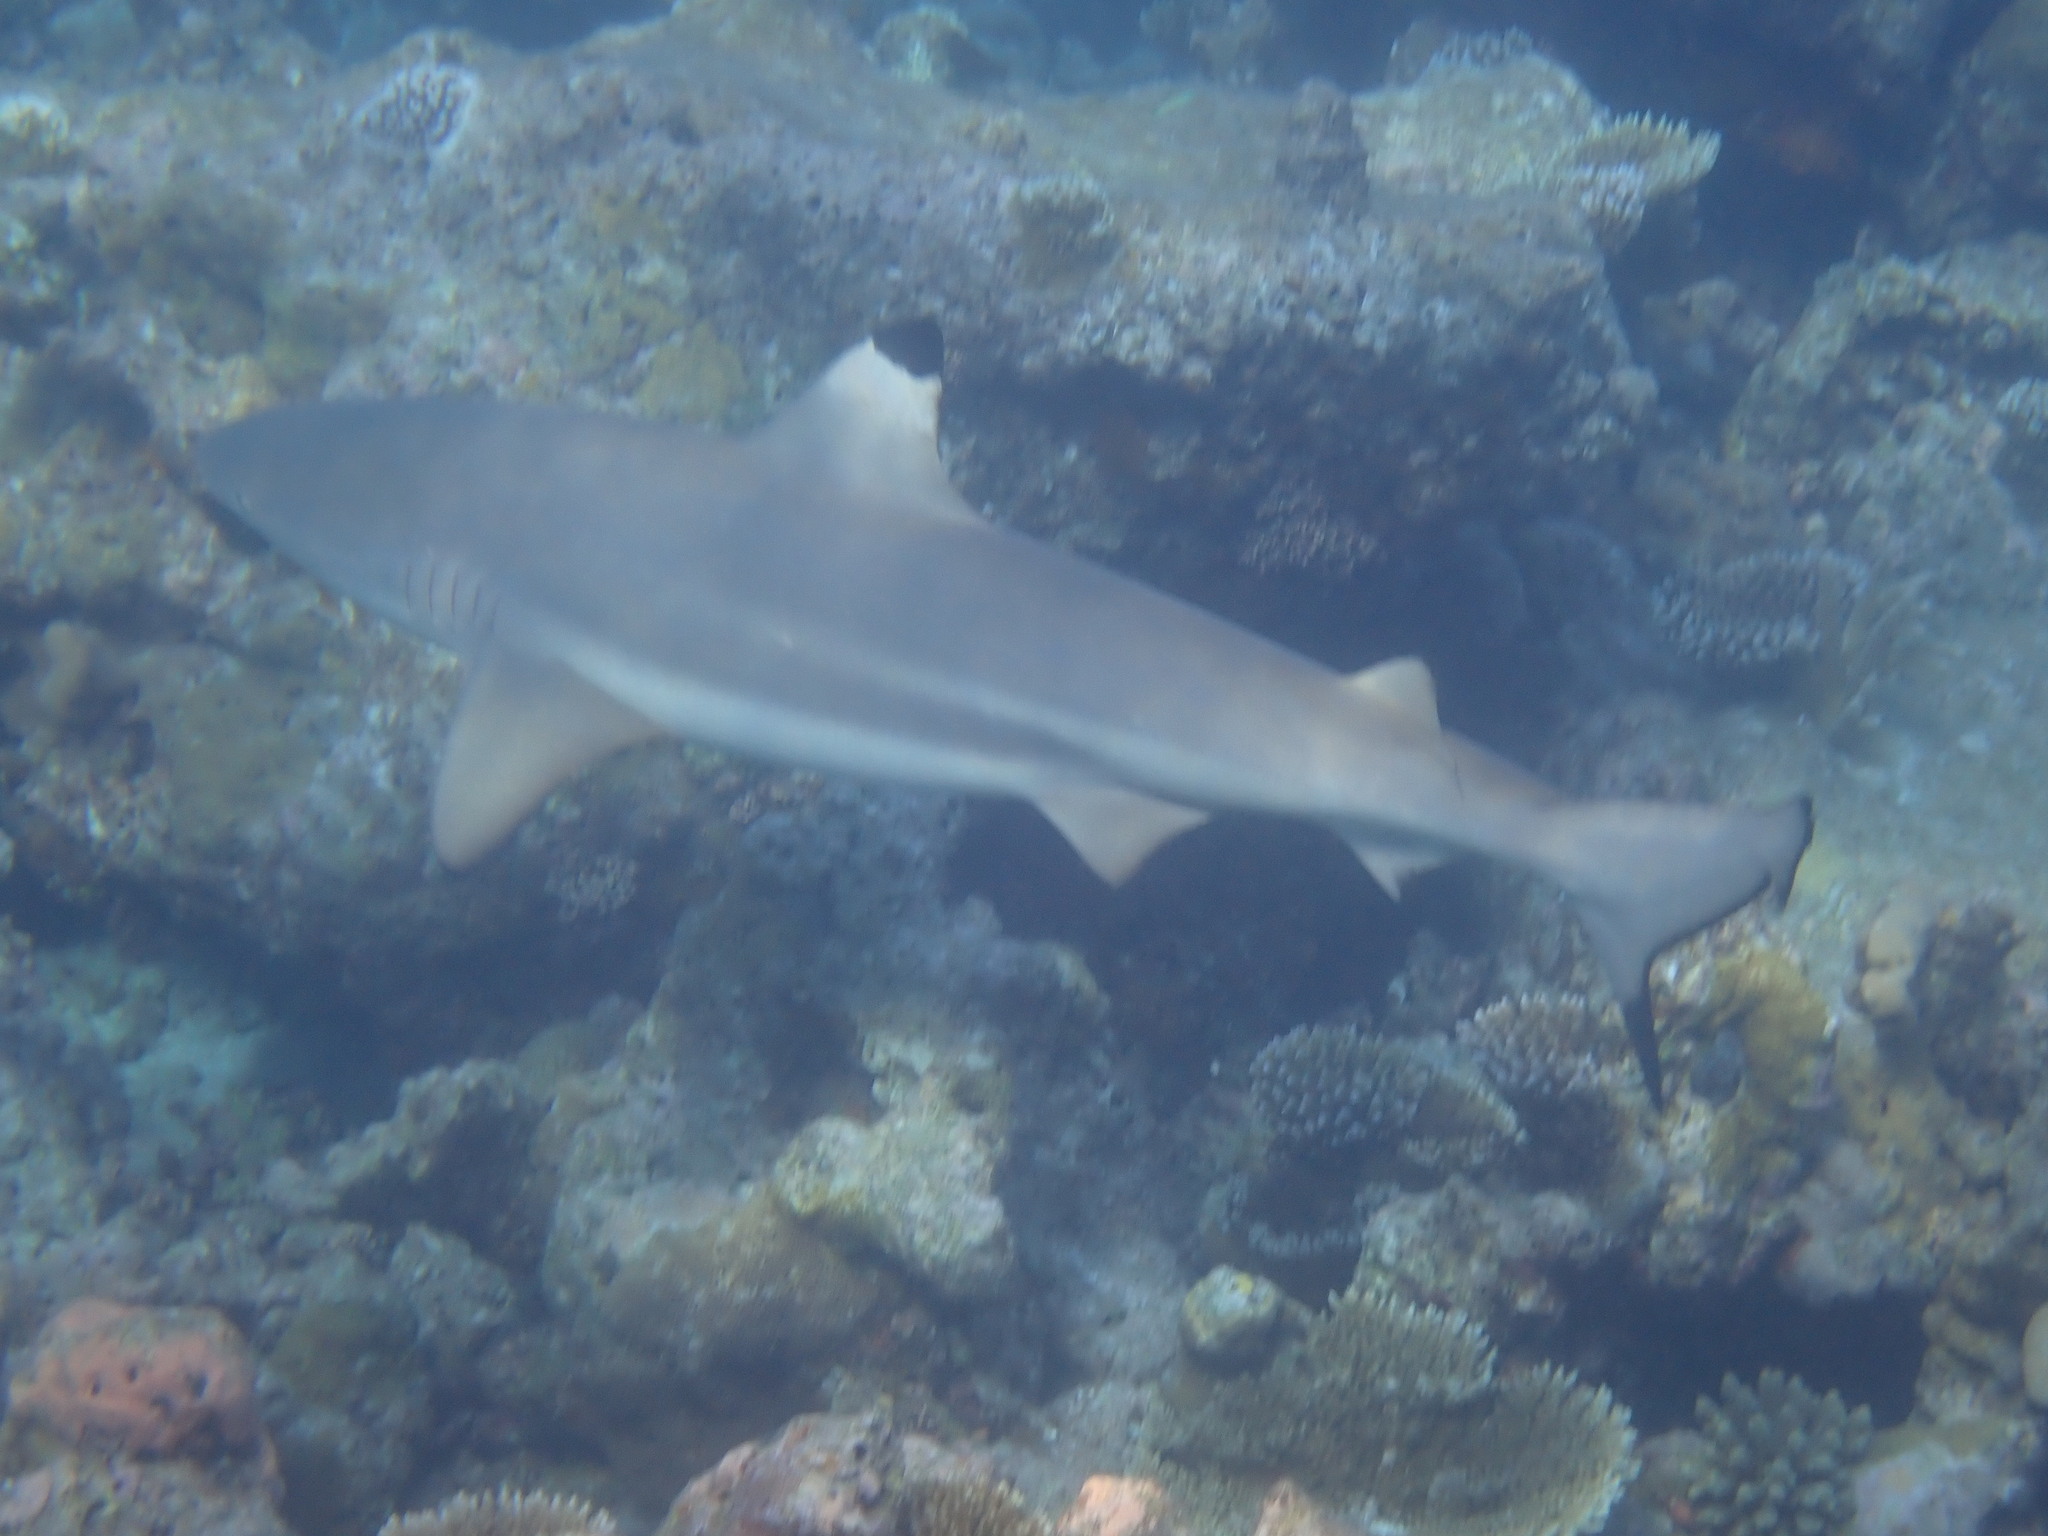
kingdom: Animalia
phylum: Chordata
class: Elasmobranchii
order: Carcharhiniformes
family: Carcharhinidae
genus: Carcharhinus
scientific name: Carcharhinus melanopterus
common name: Blacktip reef shark
